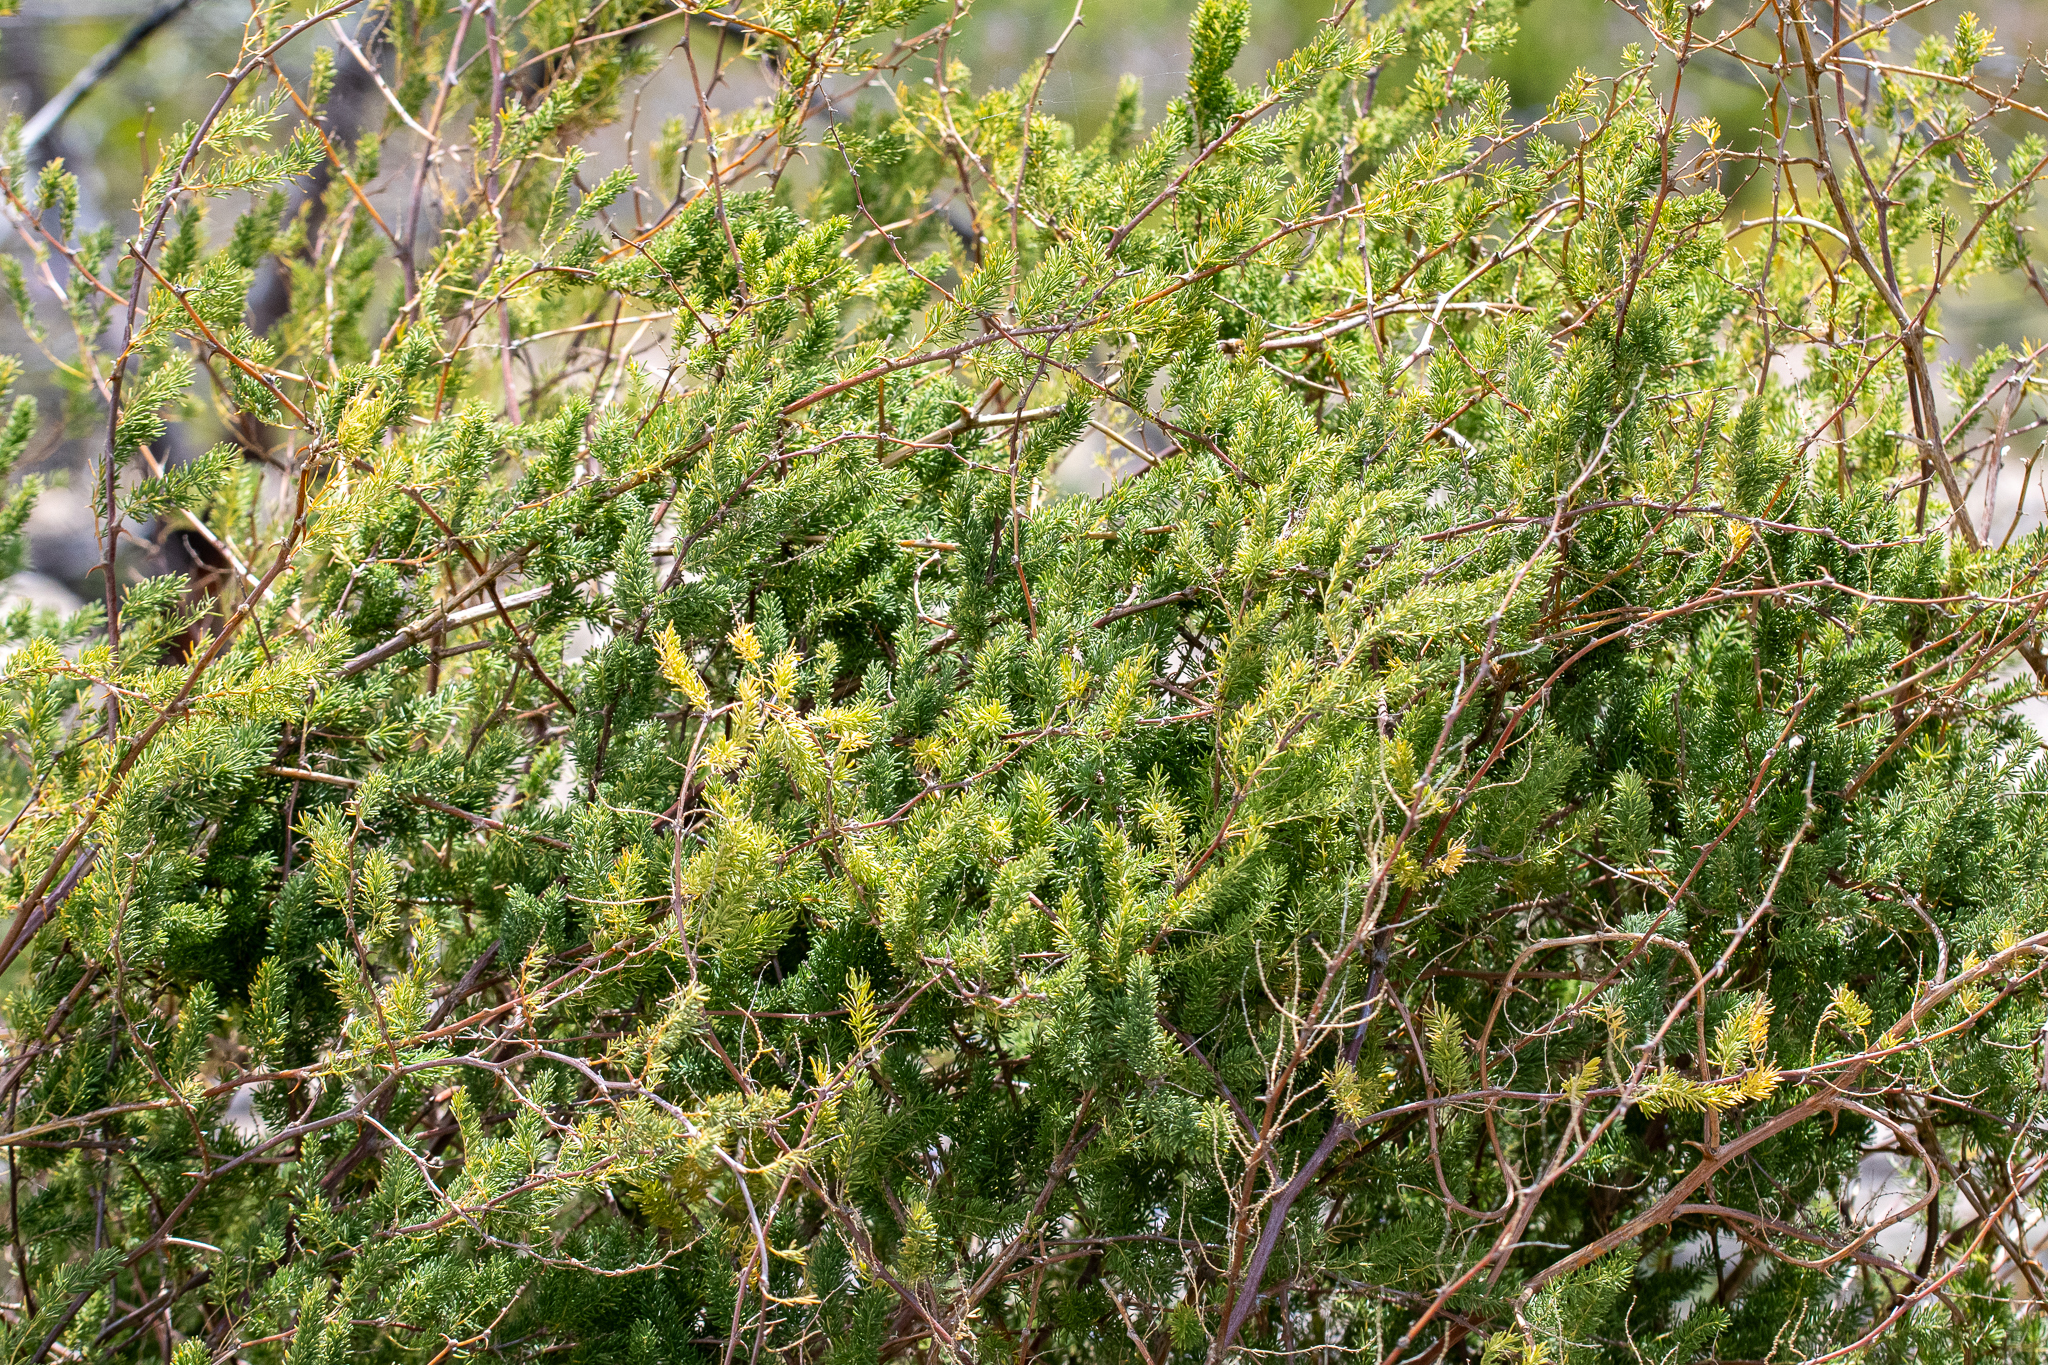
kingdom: Plantae
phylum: Tracheophyta
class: Liliopsida
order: Asparagales
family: Asparagaceae
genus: Asparagus
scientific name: Asparagus rubicundus
